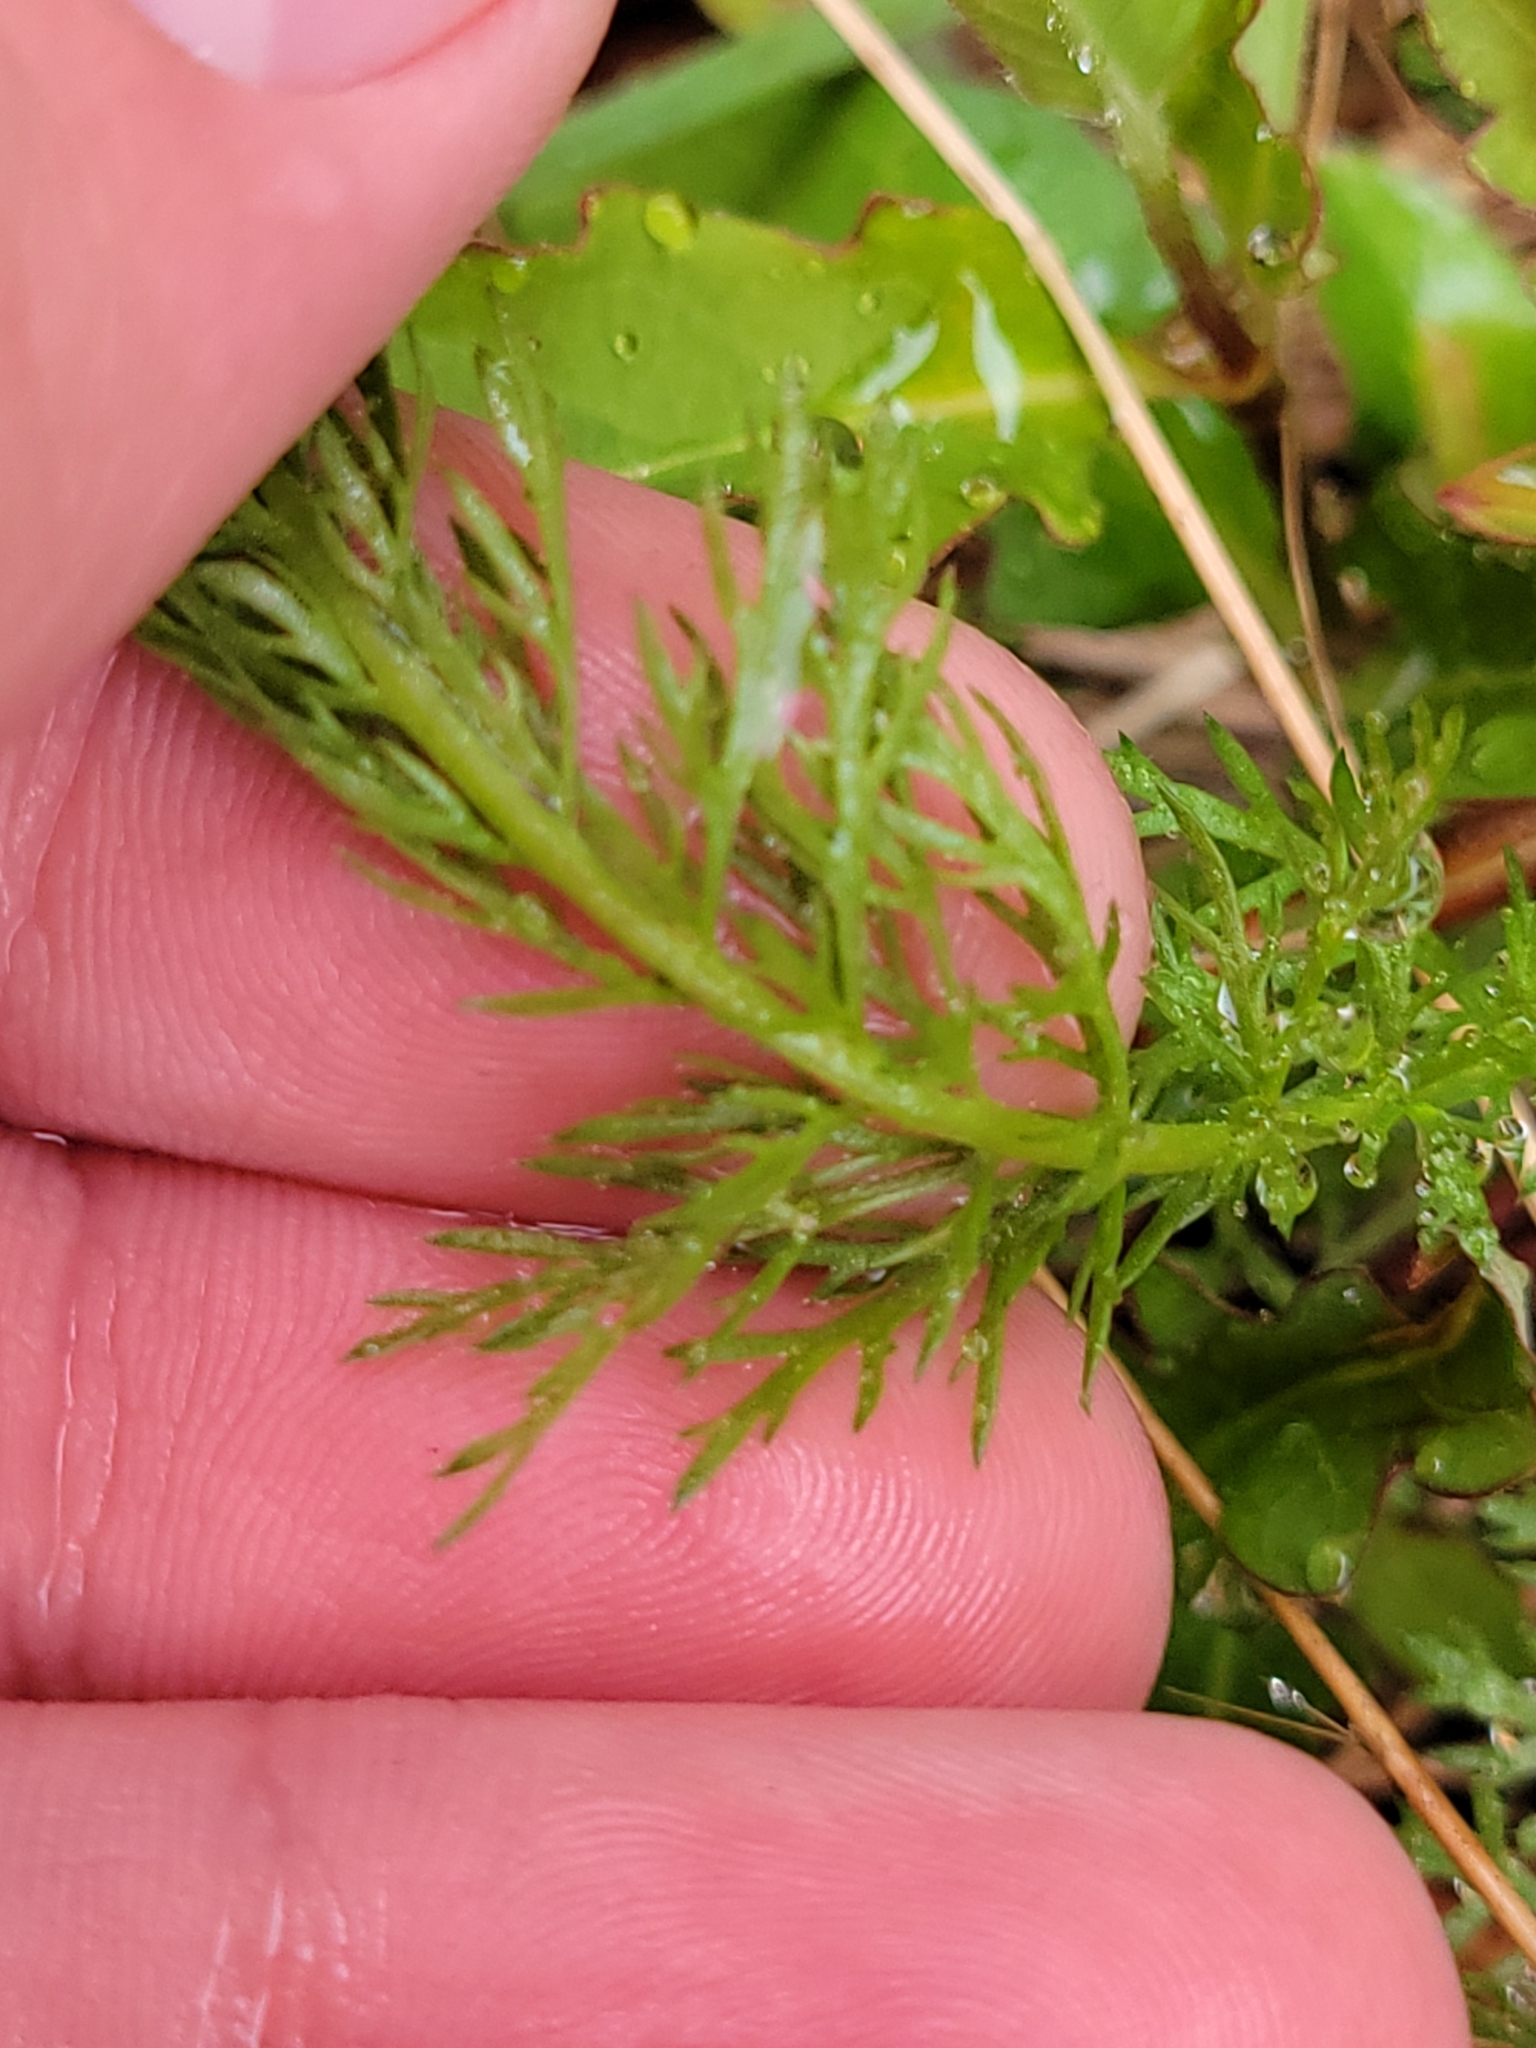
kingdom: Plantae
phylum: Tracheophyta
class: Magnoliopsida
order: Asterales
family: Asteraceae
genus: Achillea
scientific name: Achillea millefolium
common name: Yarrow
